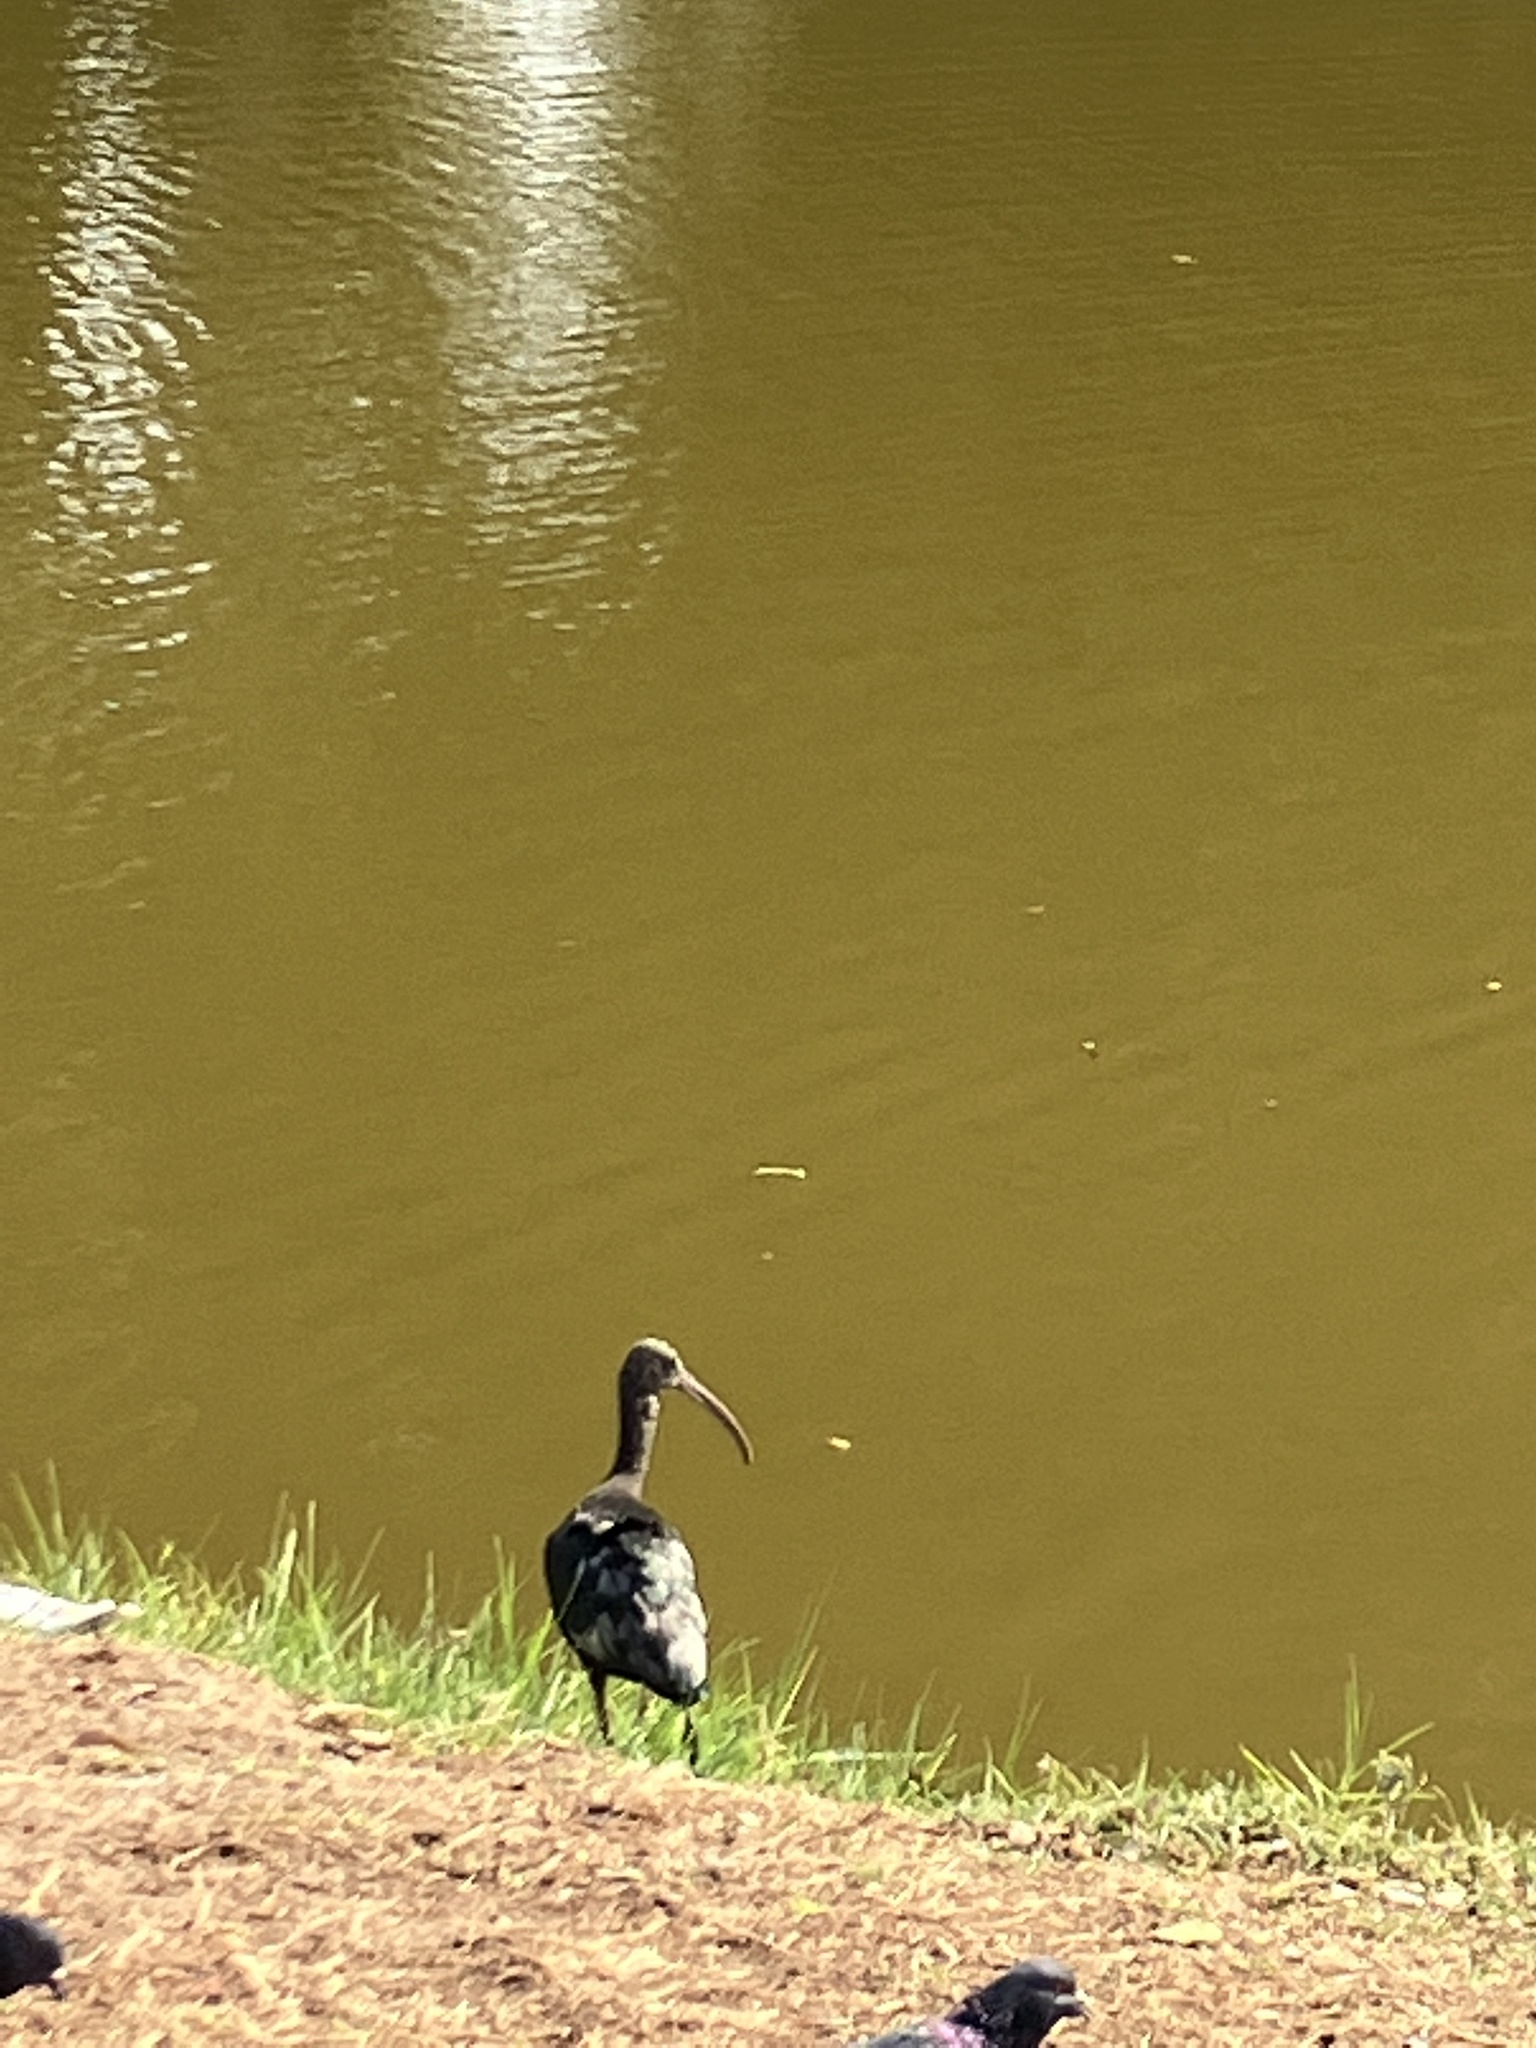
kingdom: Animalia
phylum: Chordata
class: Aves
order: Pelecaniformes
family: Threskiornithidae
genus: Plegadis
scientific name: Plegadis falcinellus
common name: Glossy ibis
